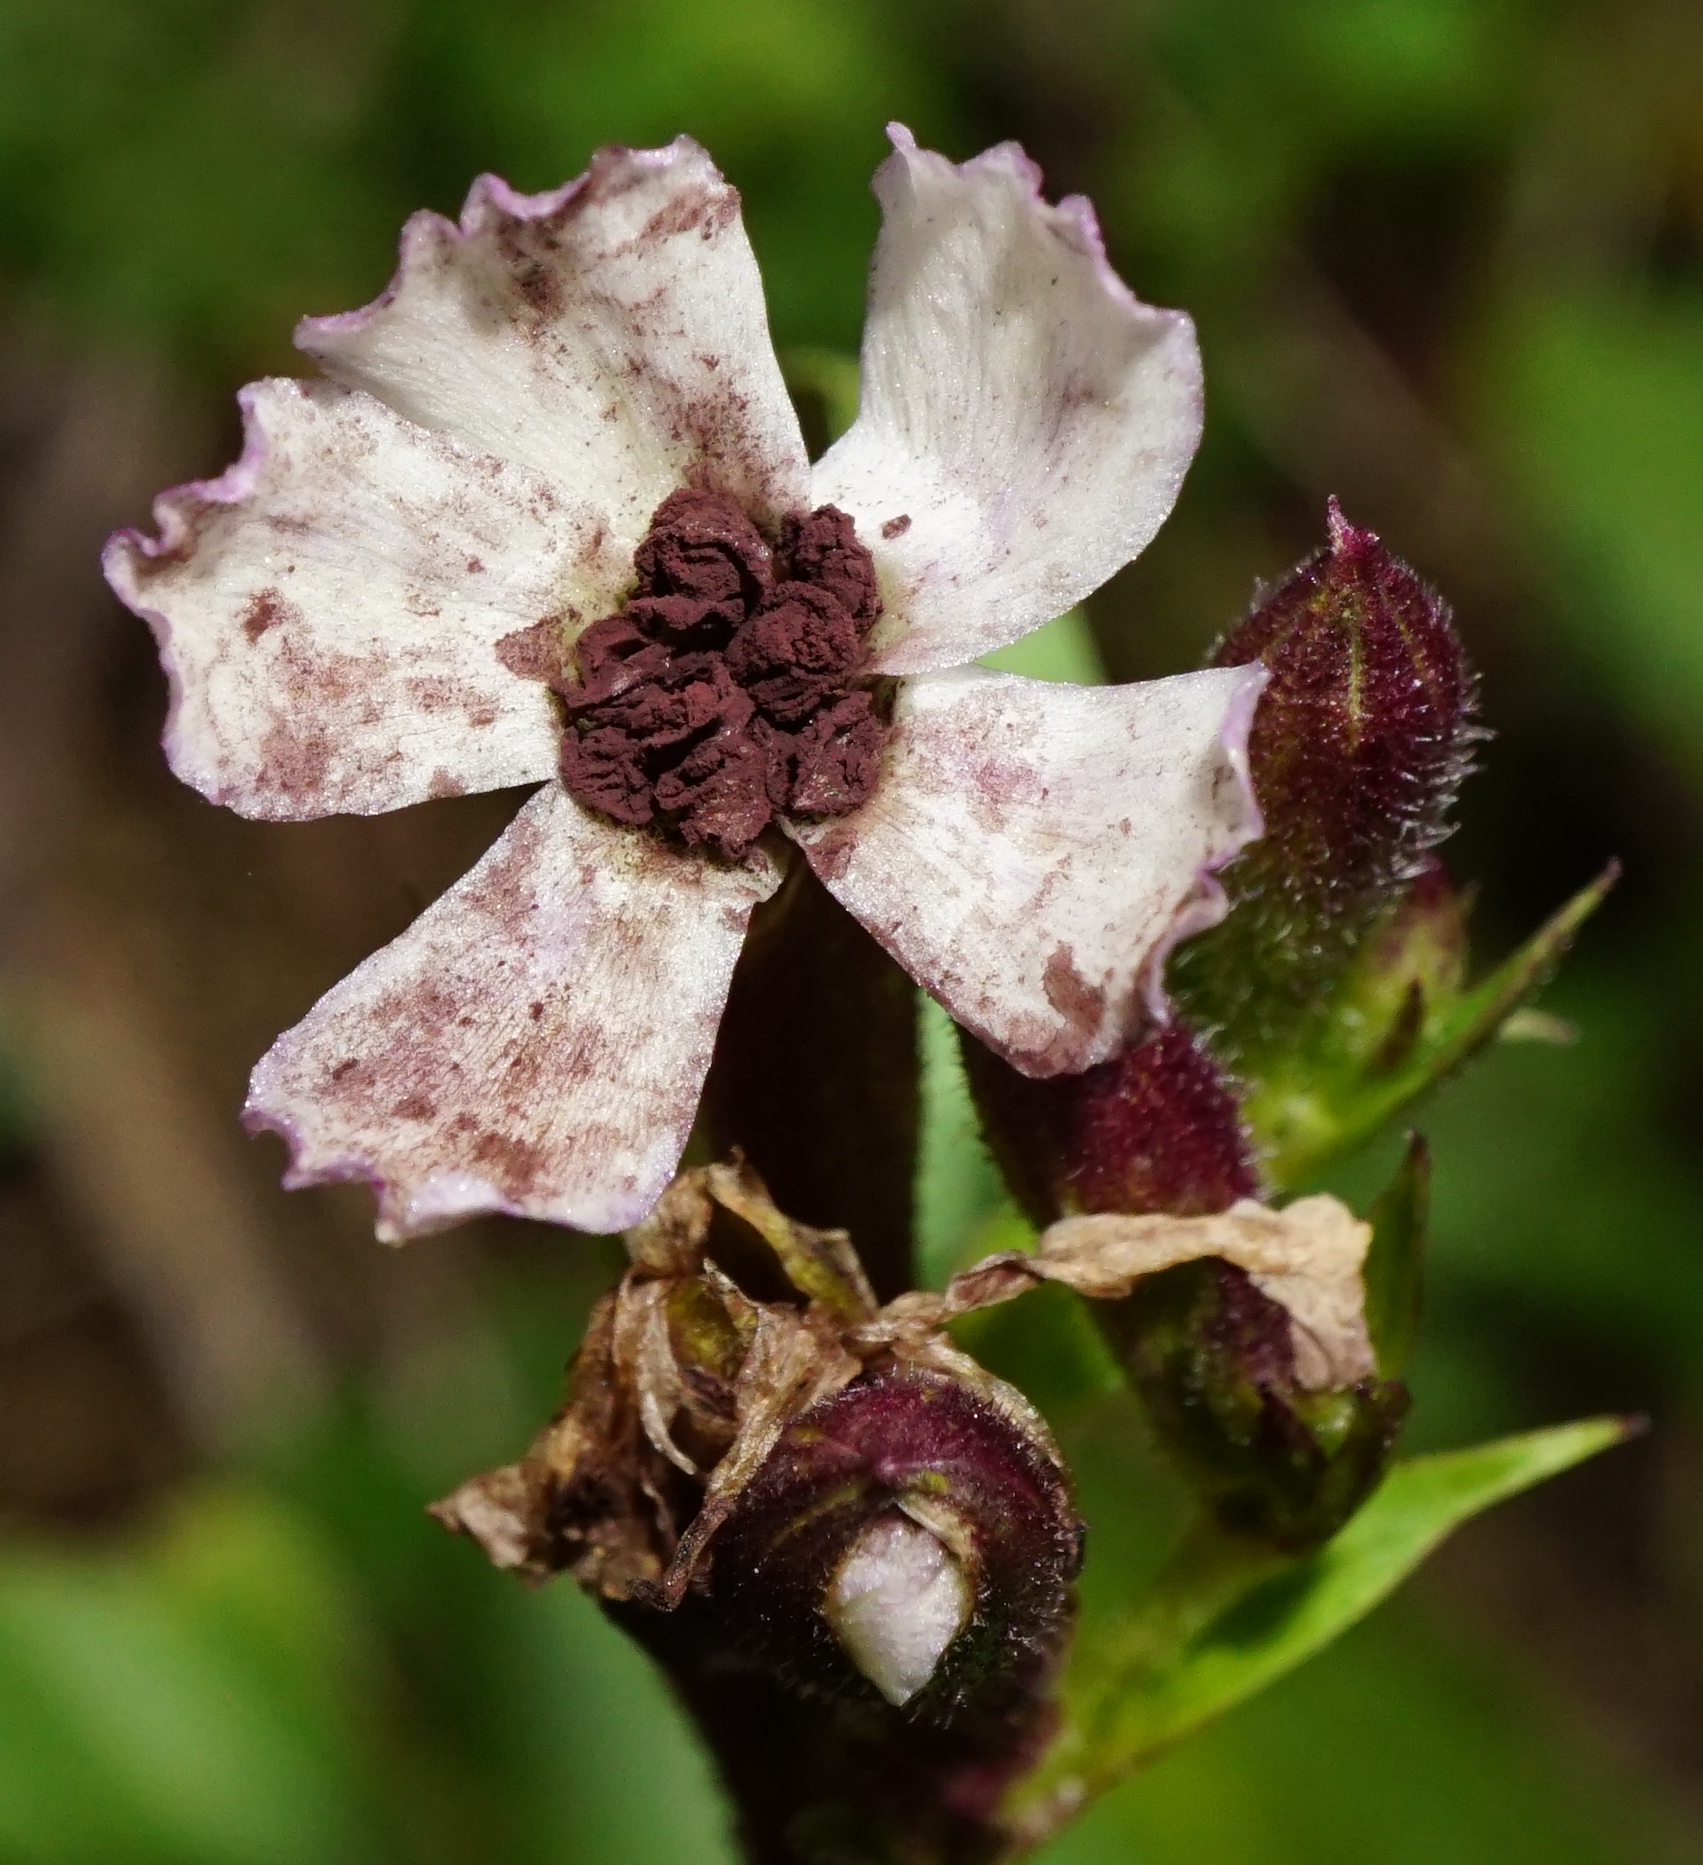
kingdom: Fungi
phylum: Basidiomycota
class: Microbotryomycetes
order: Microbotryales
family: Microbotryaceae
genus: Microbotryum
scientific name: Microbotryum saponariae
